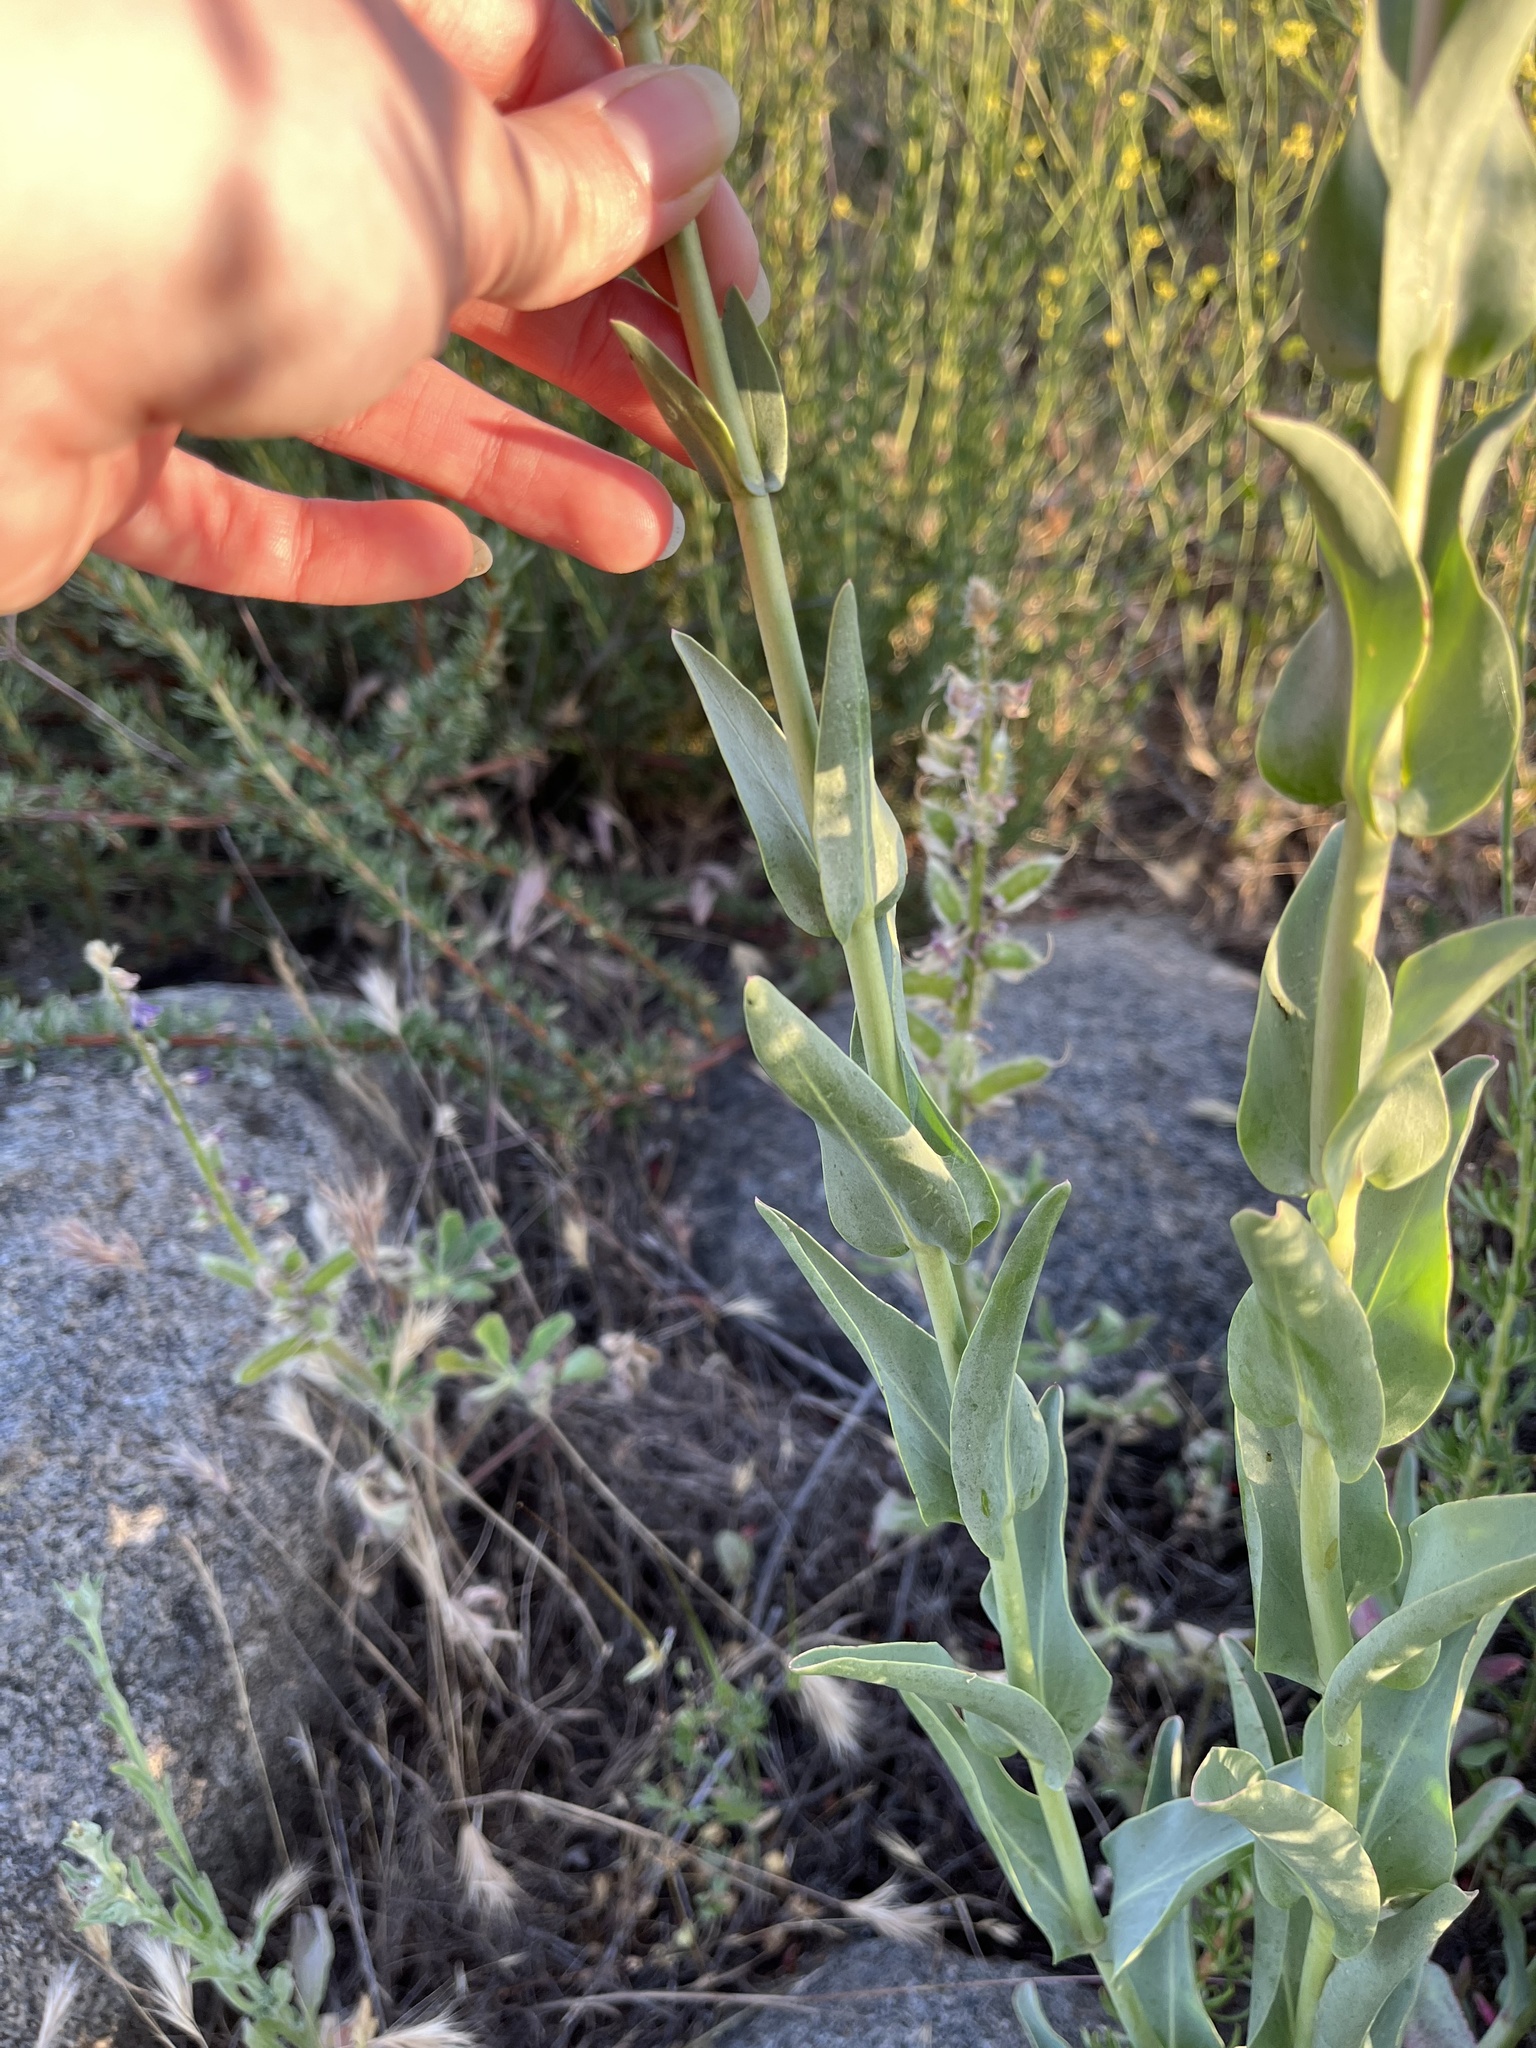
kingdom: Plantae
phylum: Tracheophyta
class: Magnoliopsida
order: Lamiales
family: Plantaginaceae
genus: Penstemon
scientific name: Penstemon centranthifolius
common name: Scarlet bugler
